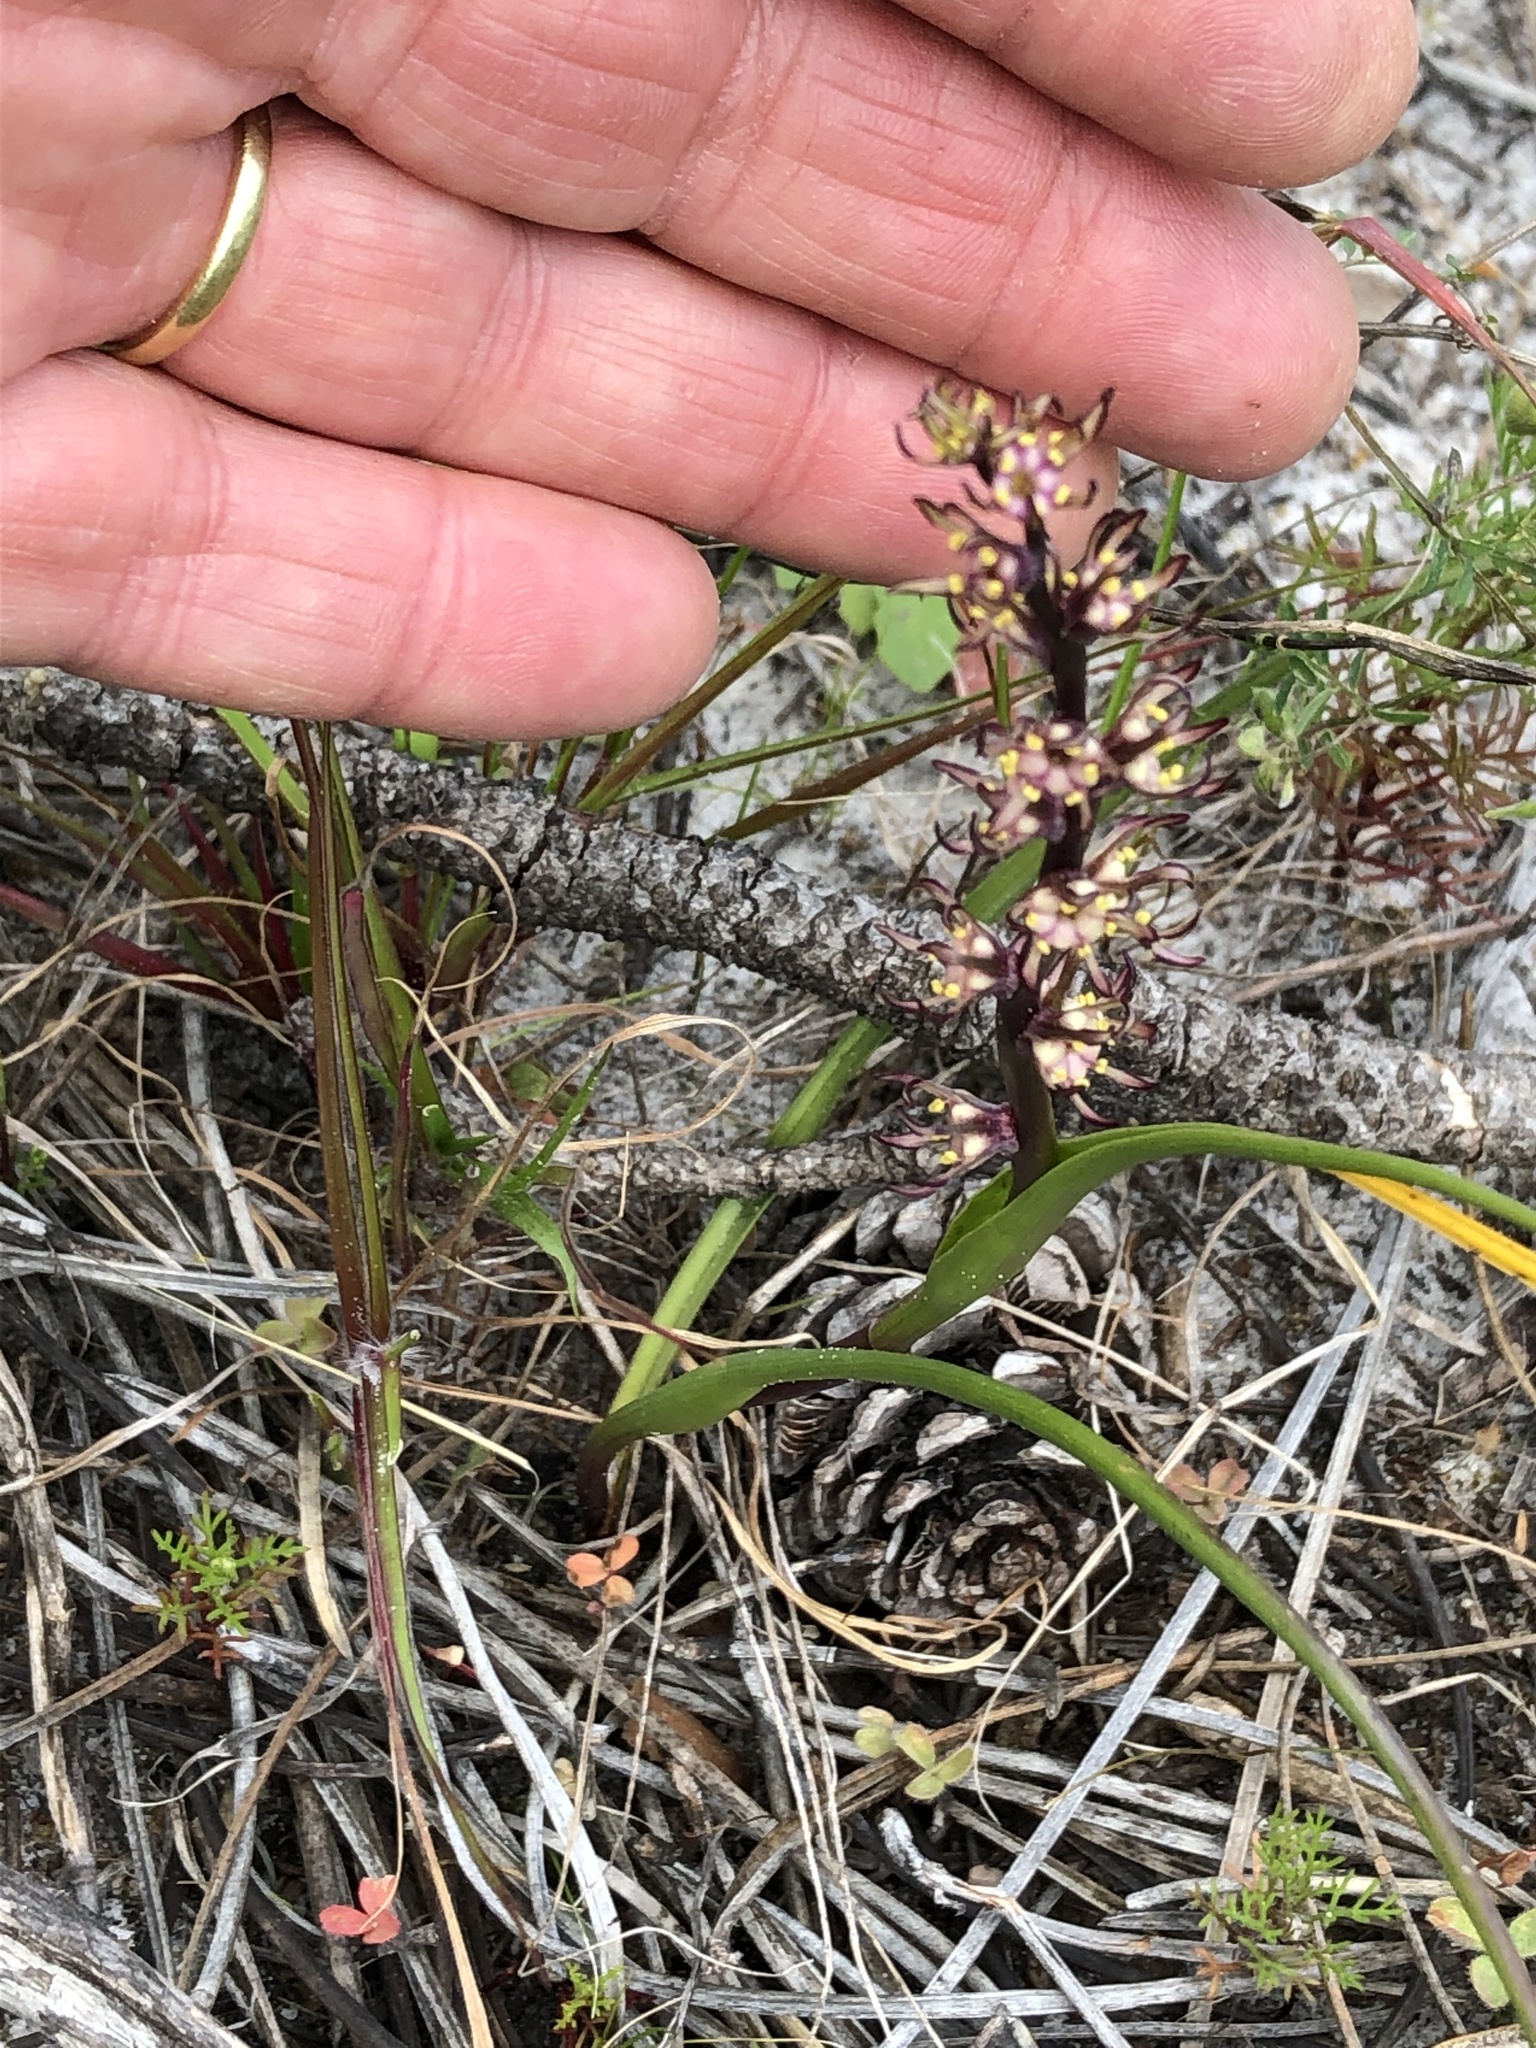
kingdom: Plantae
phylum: Tracheophyta
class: Liliopsida
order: Liliales
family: Colchicaceae
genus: Wurmbea
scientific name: Wurmbea monopetala
